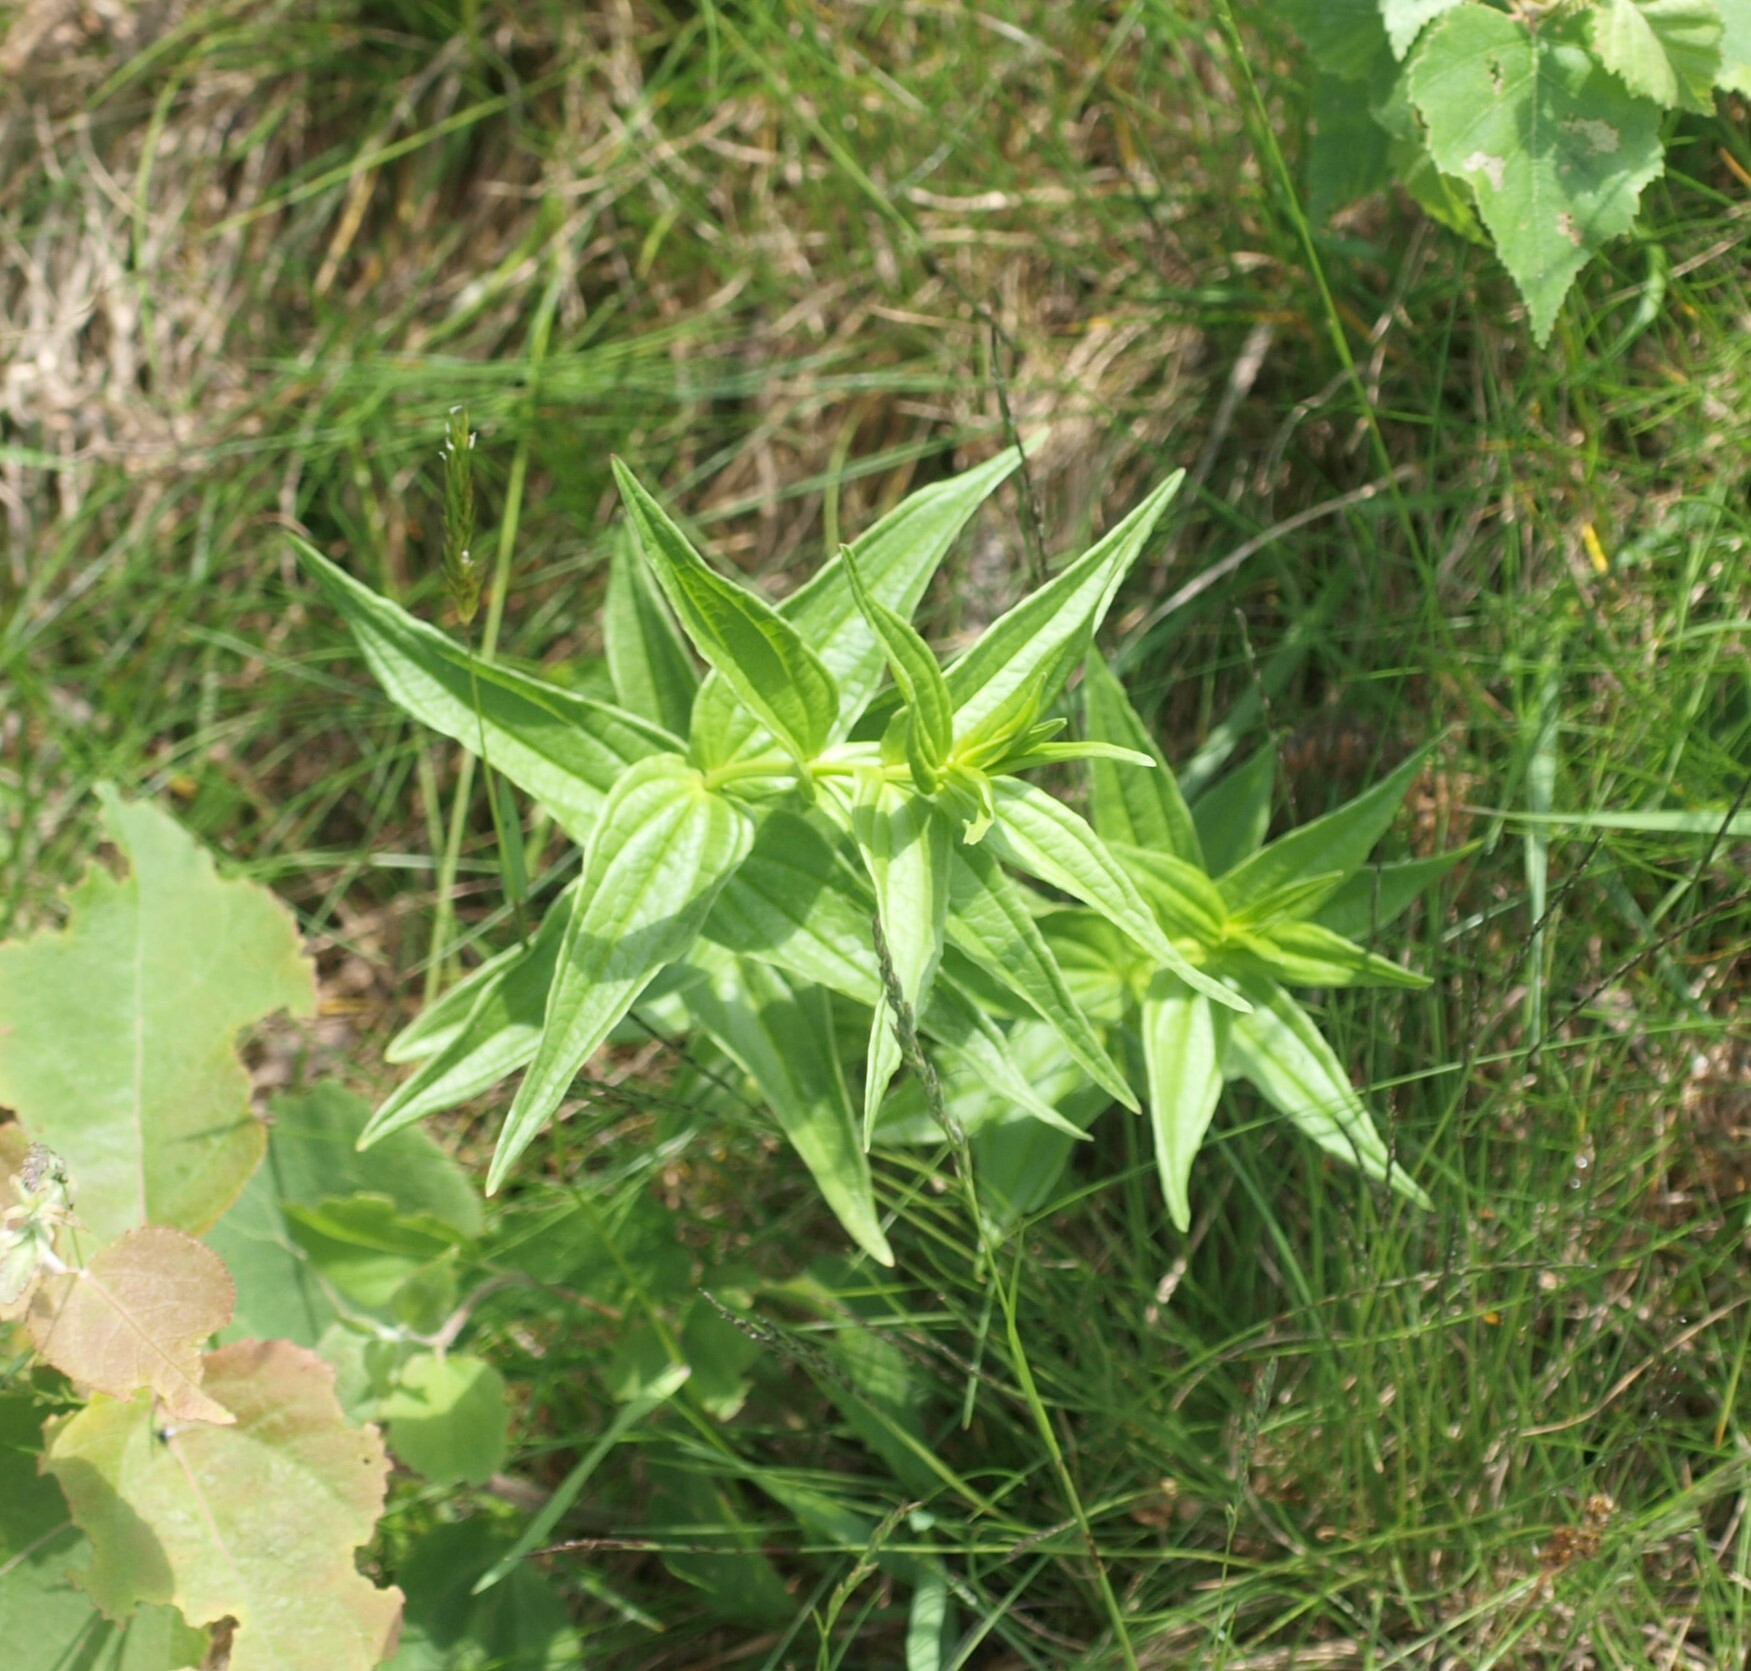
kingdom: Plantae
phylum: Tracheophyta
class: Magnoliopsida
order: Gentianales
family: Gentianaceae
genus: Gentiana
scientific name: Gentiana asclepiadea
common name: Willow gentian
